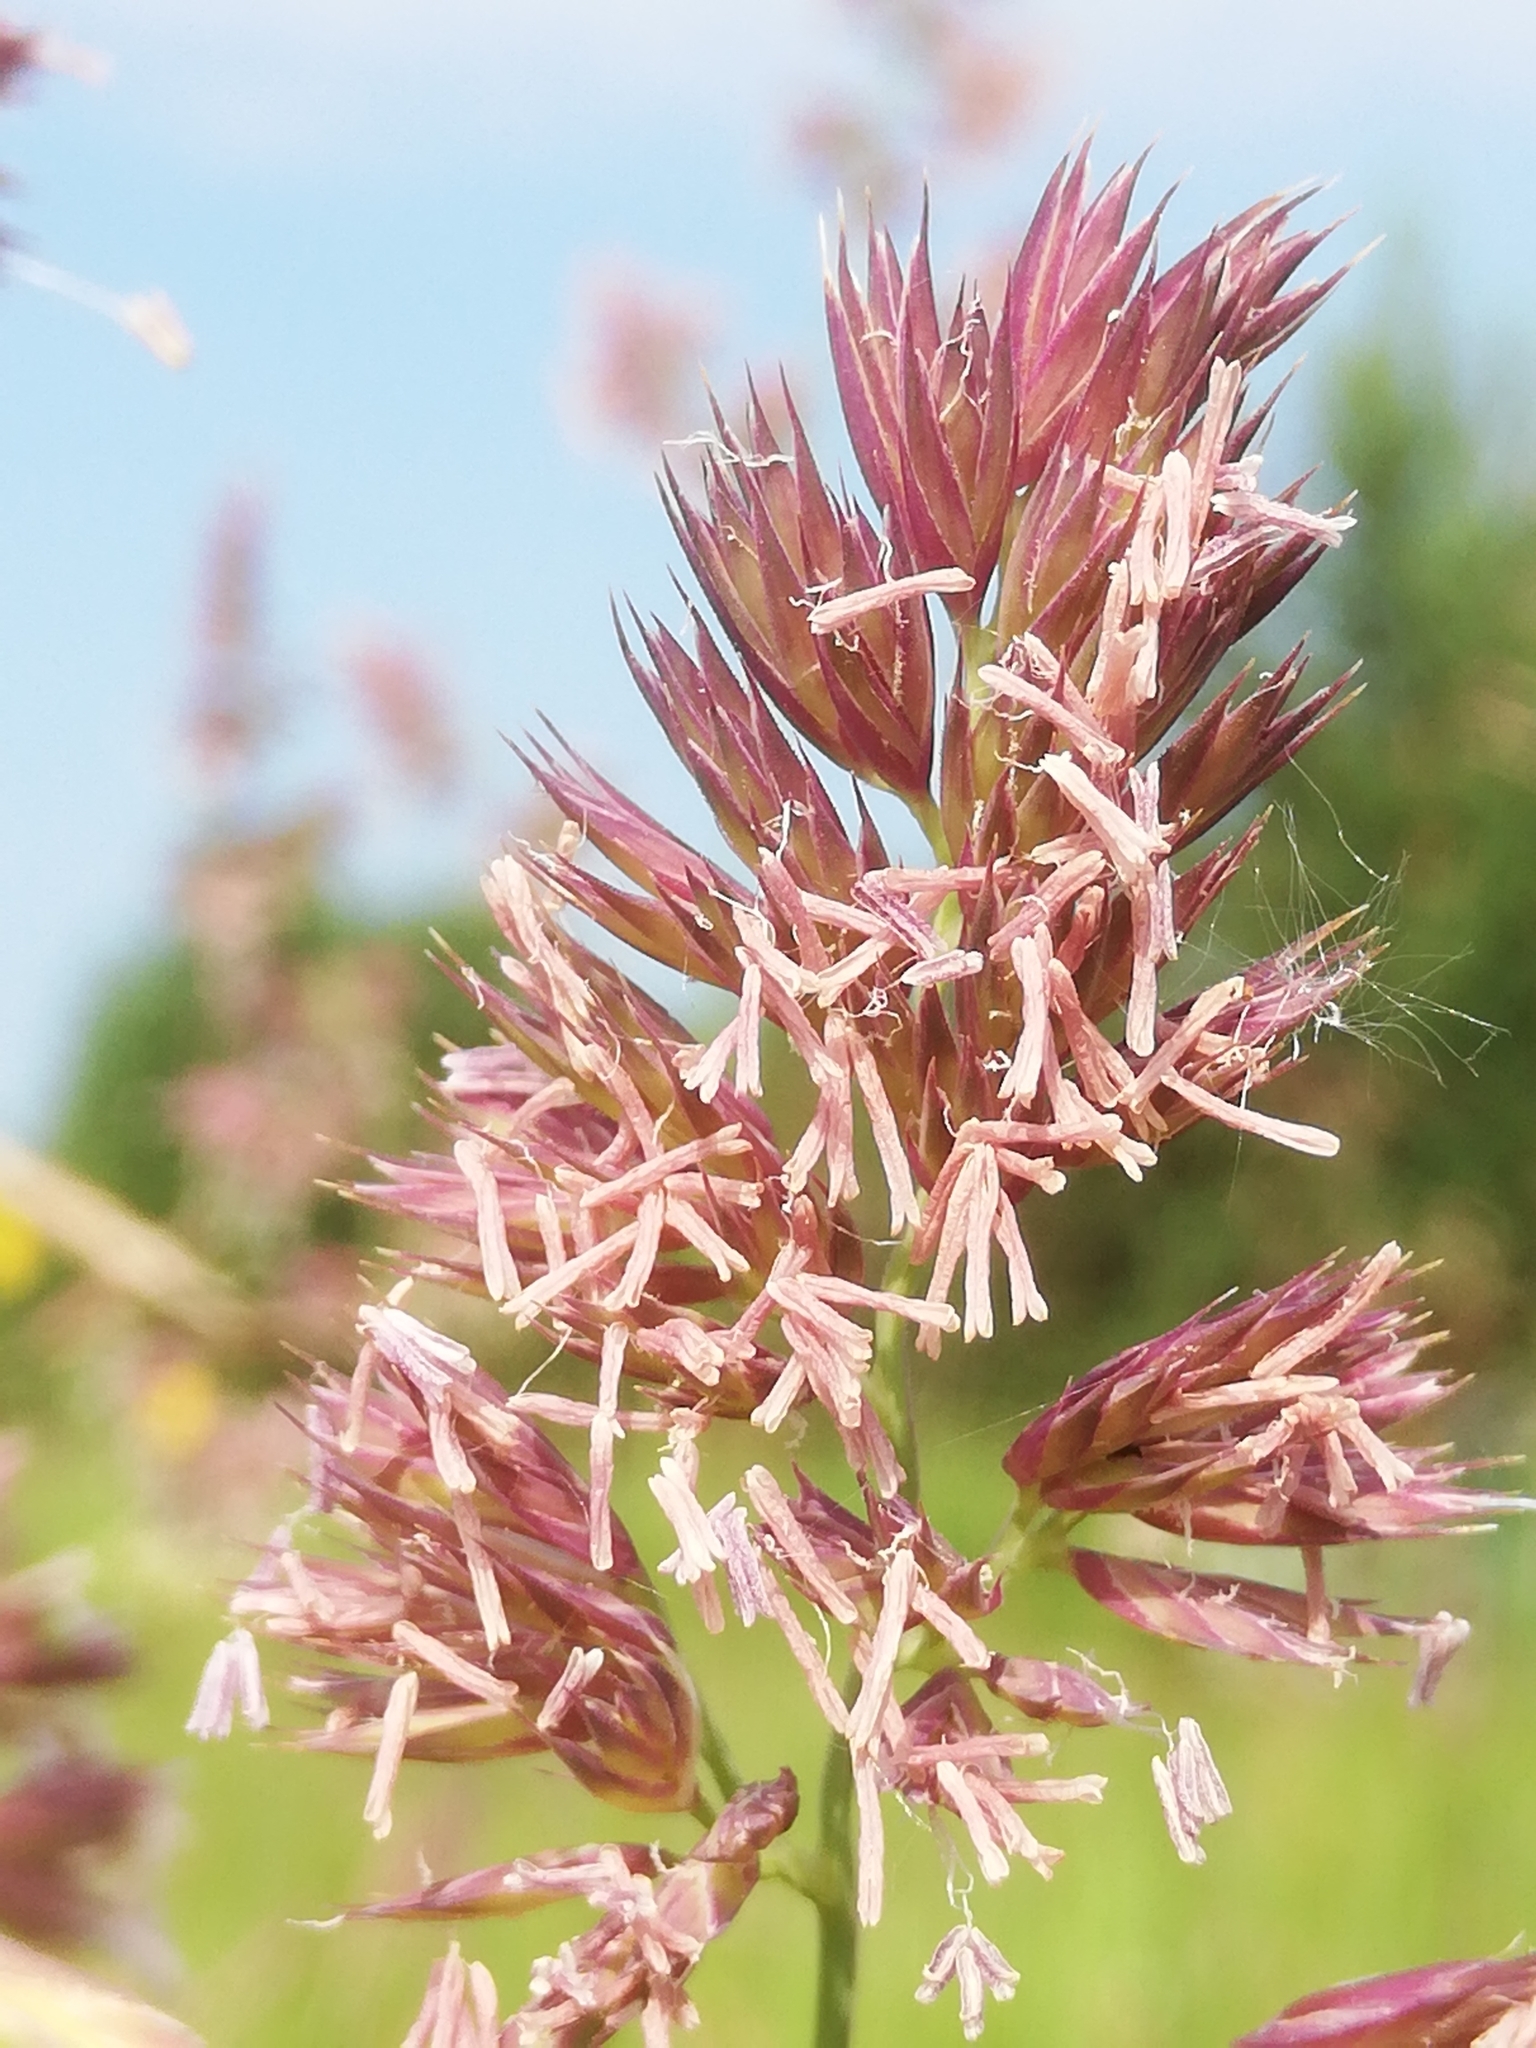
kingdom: Plantae
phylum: Tracheophyta
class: Liliopsida
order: Poales
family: Poaceae
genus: Dactylis
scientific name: Dactylis glomerata
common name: Orchardgrass
